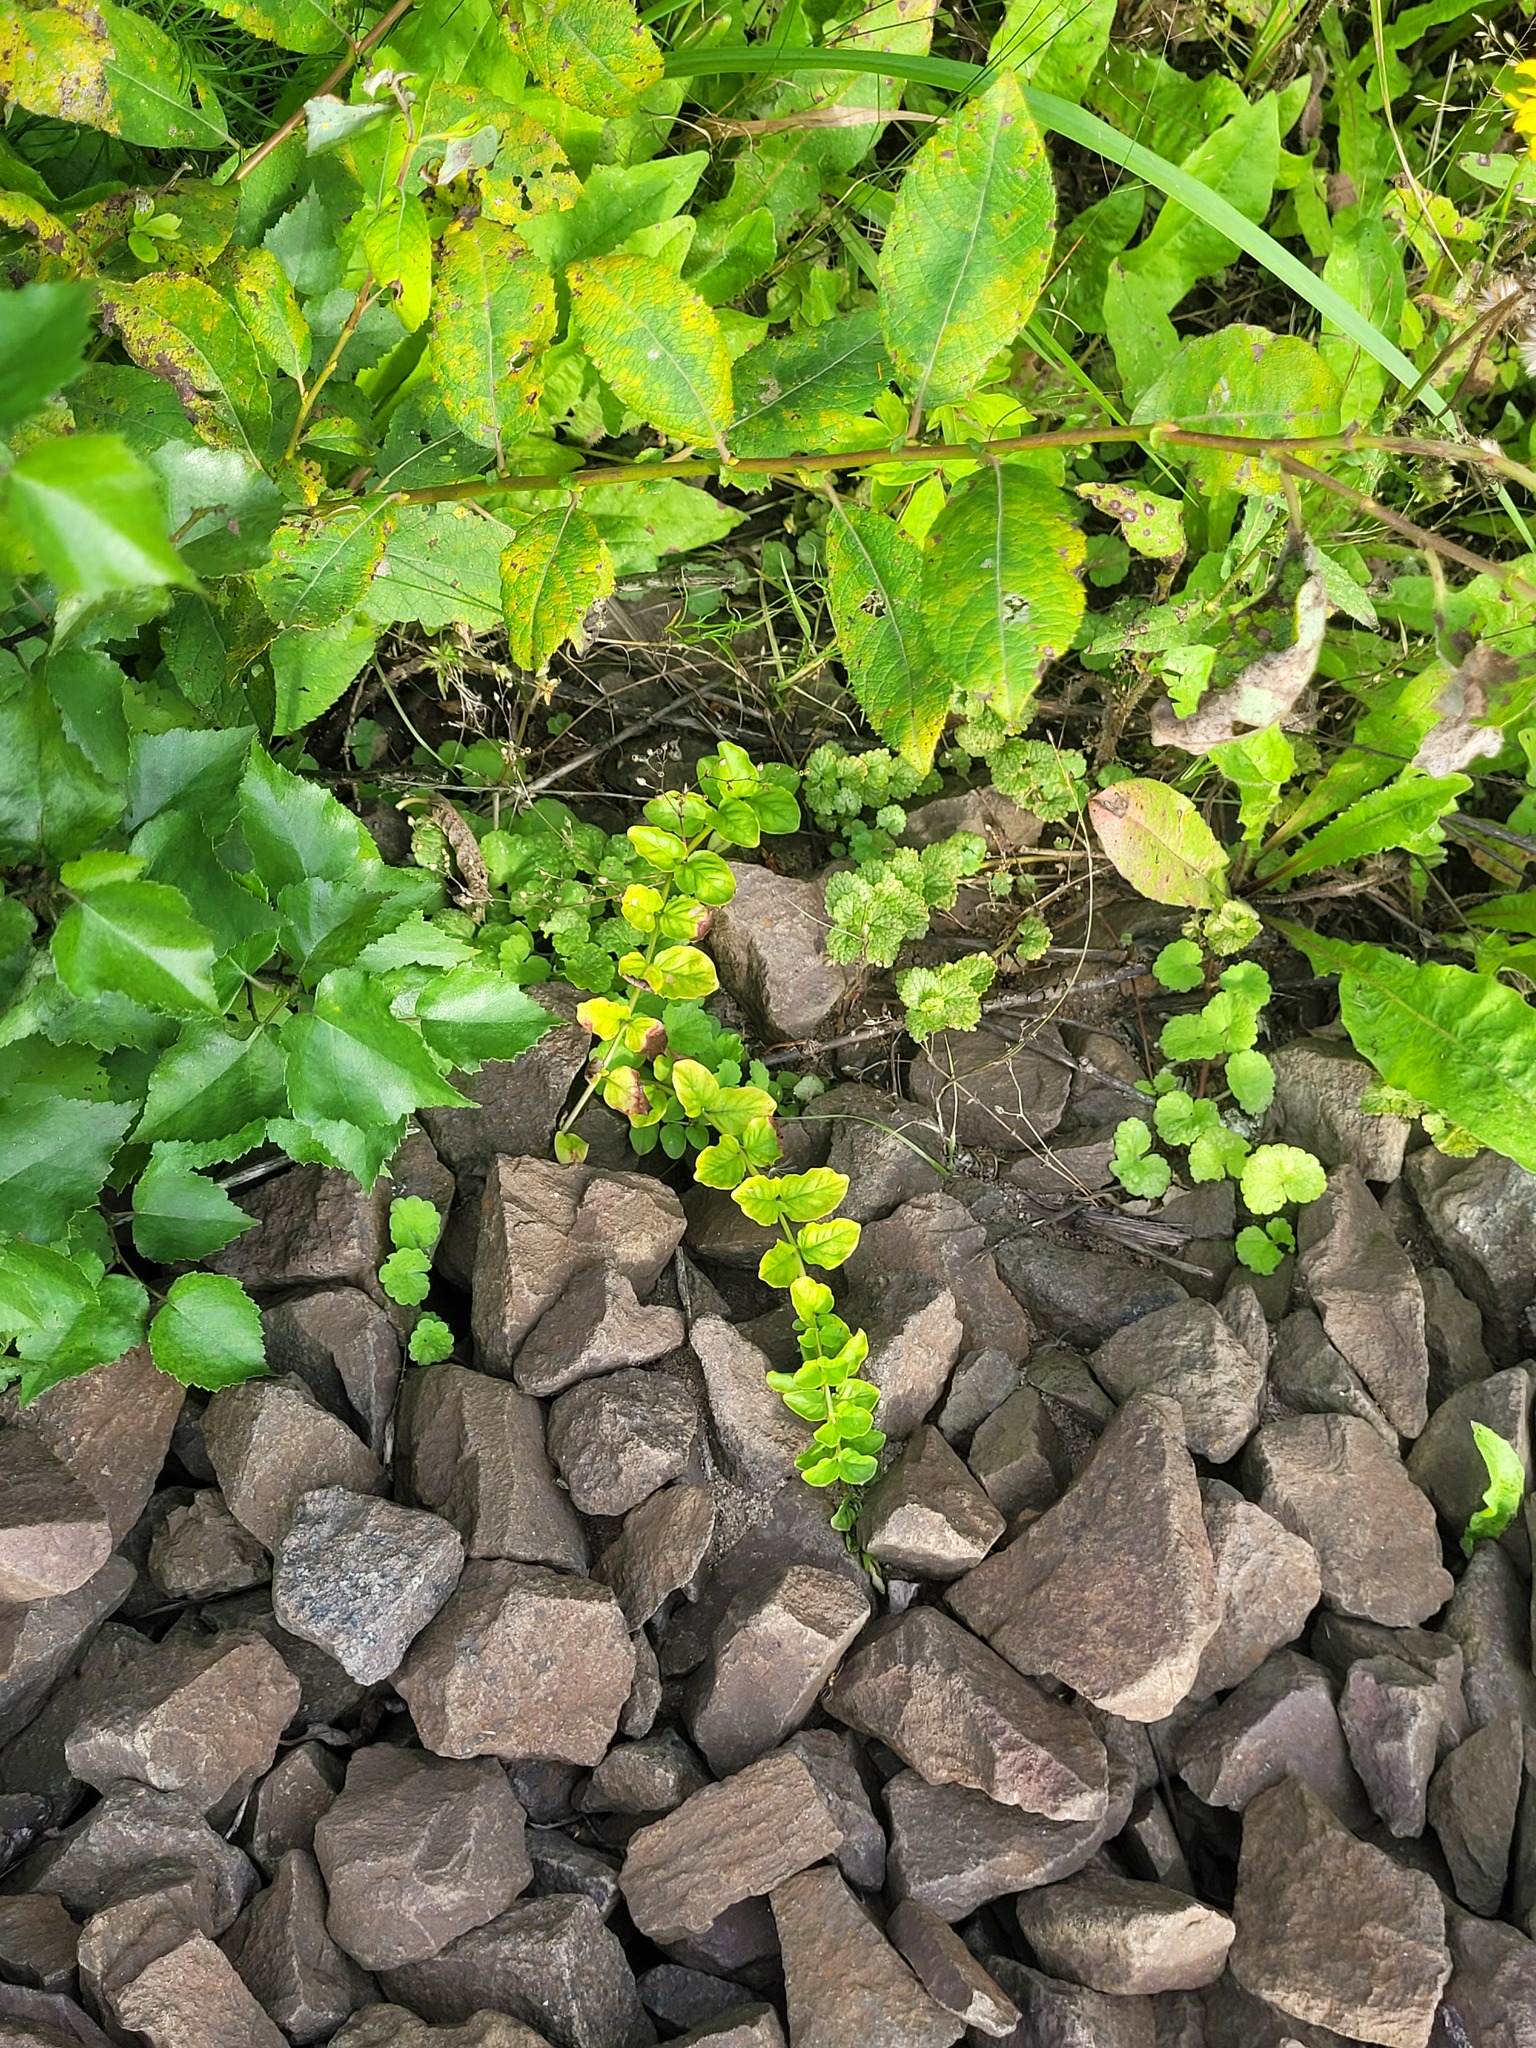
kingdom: Plantae
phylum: Tracheophyta
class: Magnoliopsida
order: Ericales
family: Primulaceae
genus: Lysimachia
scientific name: Lysimachia nummularia
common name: Moneywort
